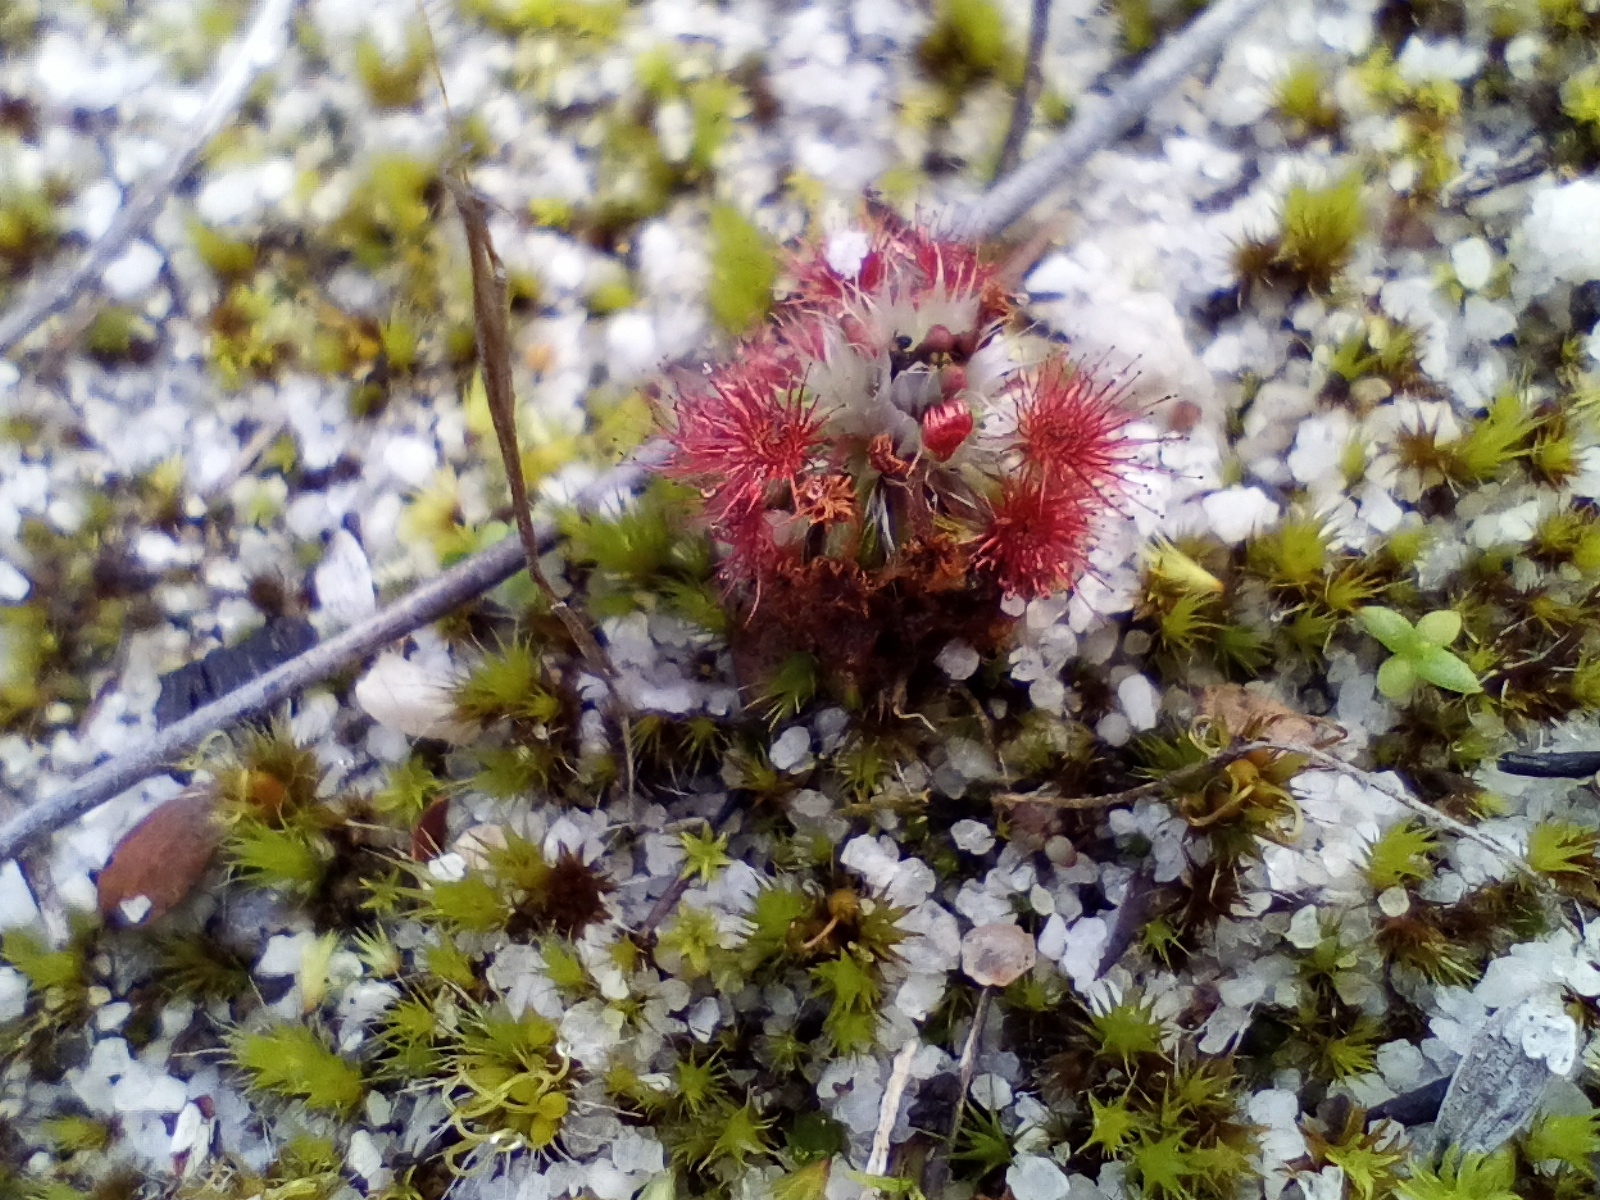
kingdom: Plantae
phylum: Tracheophyta
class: Magnoliopsida
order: Caryophyllales
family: Droseraceae
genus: Drosera
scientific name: Drosera paleacea
